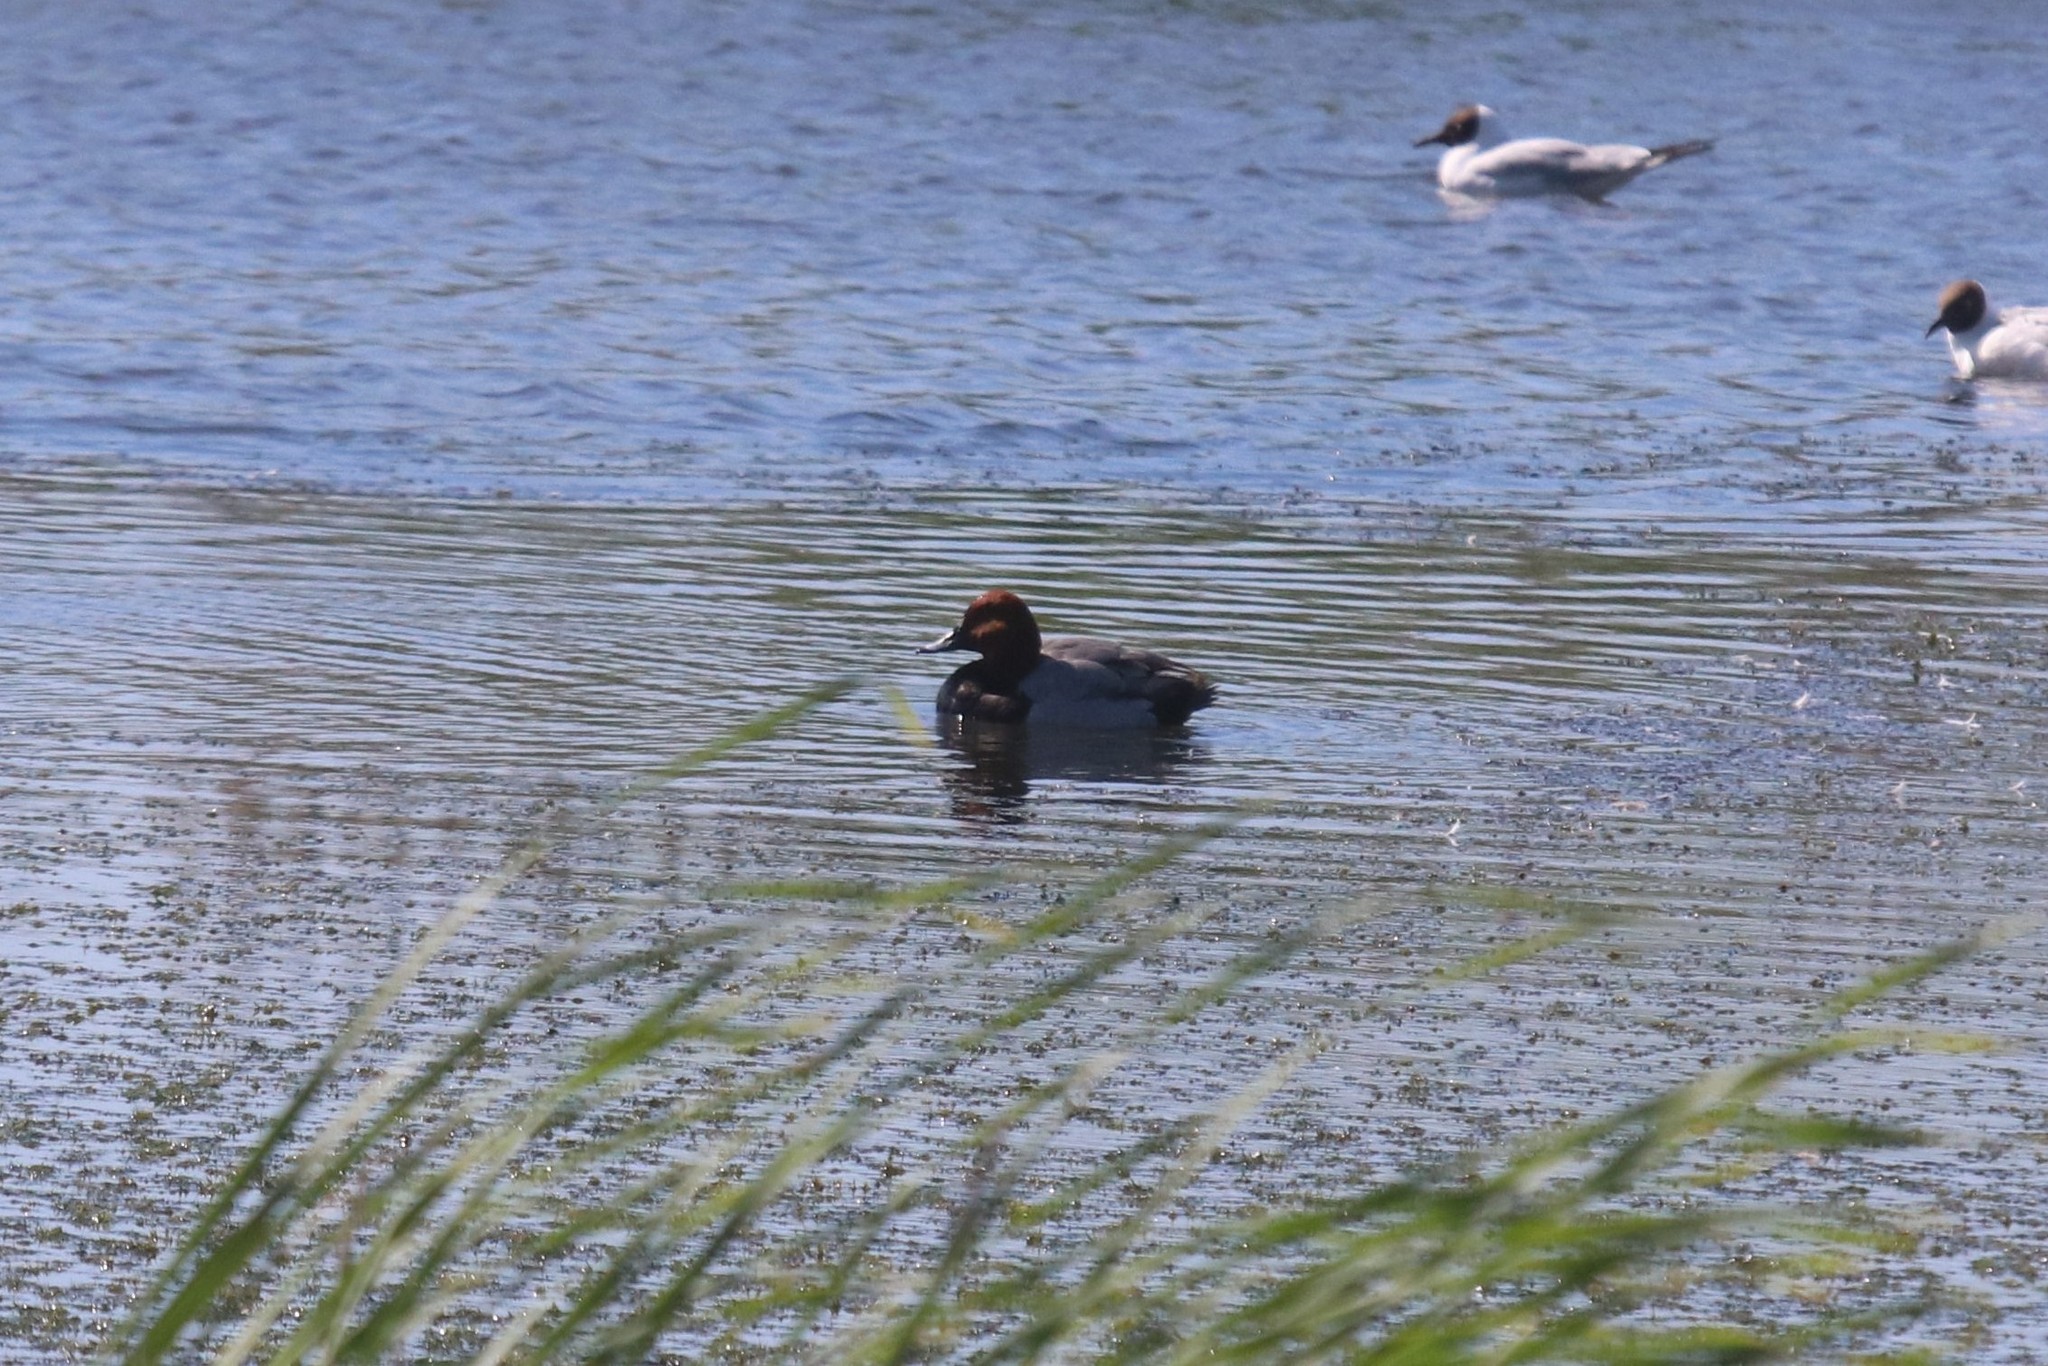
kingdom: Animalia
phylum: Chordata
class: Aves
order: Anseriformes
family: Anatidae
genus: Aythya
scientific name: Aythya ferina
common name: Common pochard
